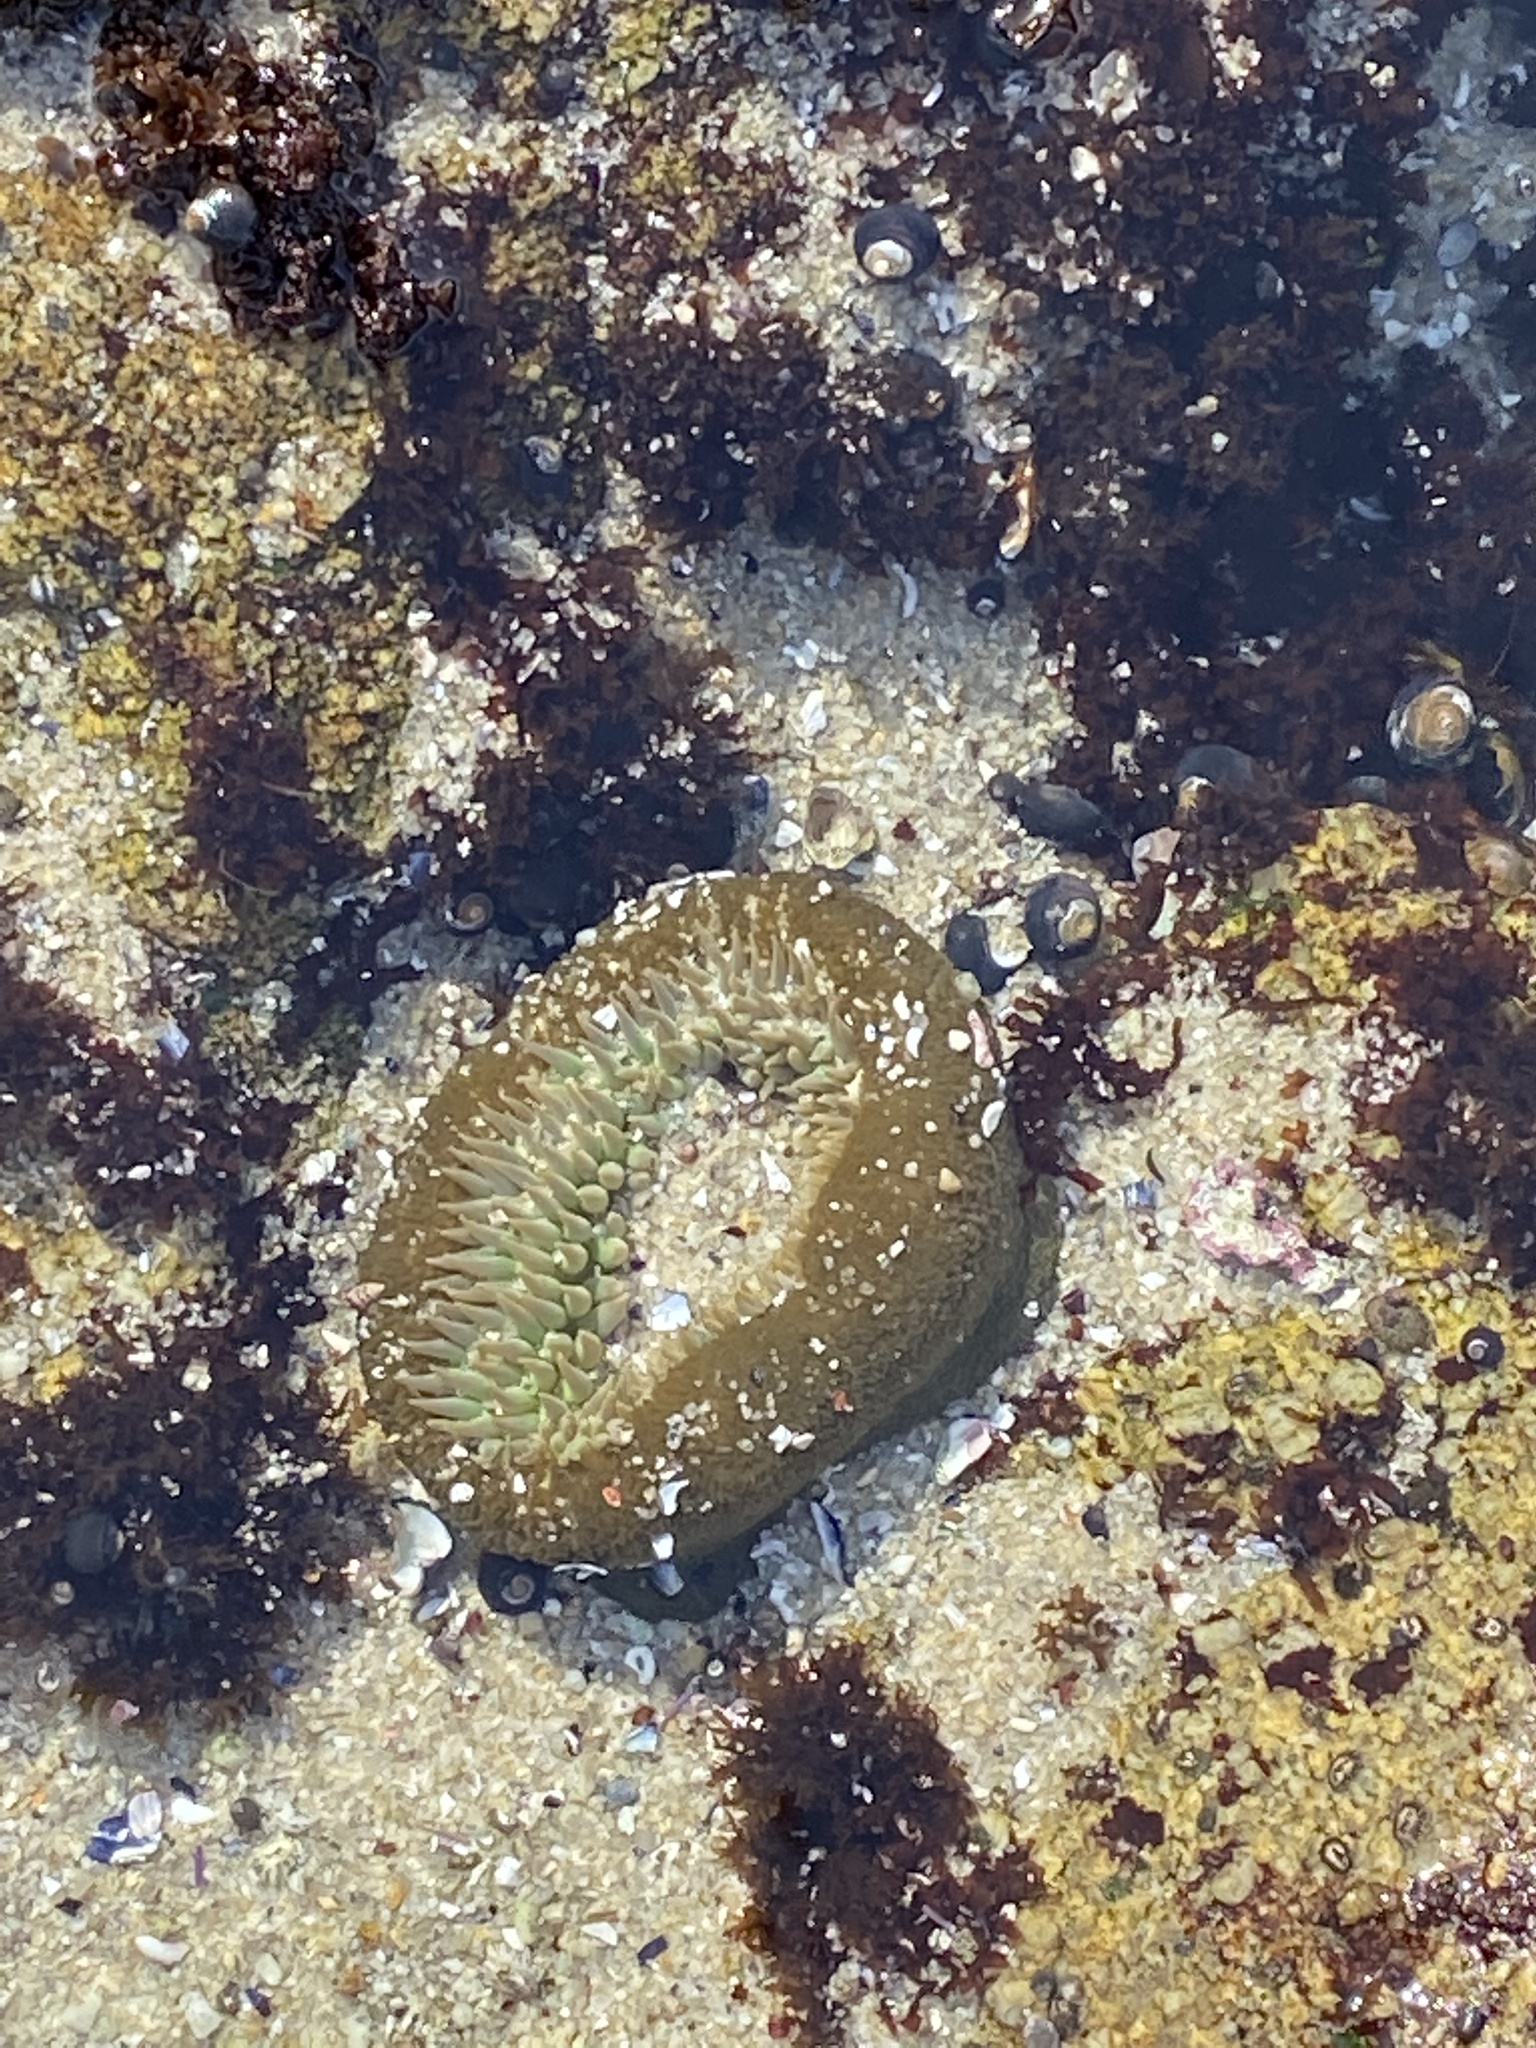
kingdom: Animalia
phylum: Cnidaria
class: Anthozoa
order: Actiniaria
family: Actiniidae
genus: Anthopleura
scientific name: Anthopleura xanthogrammica
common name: Giant green anemone
